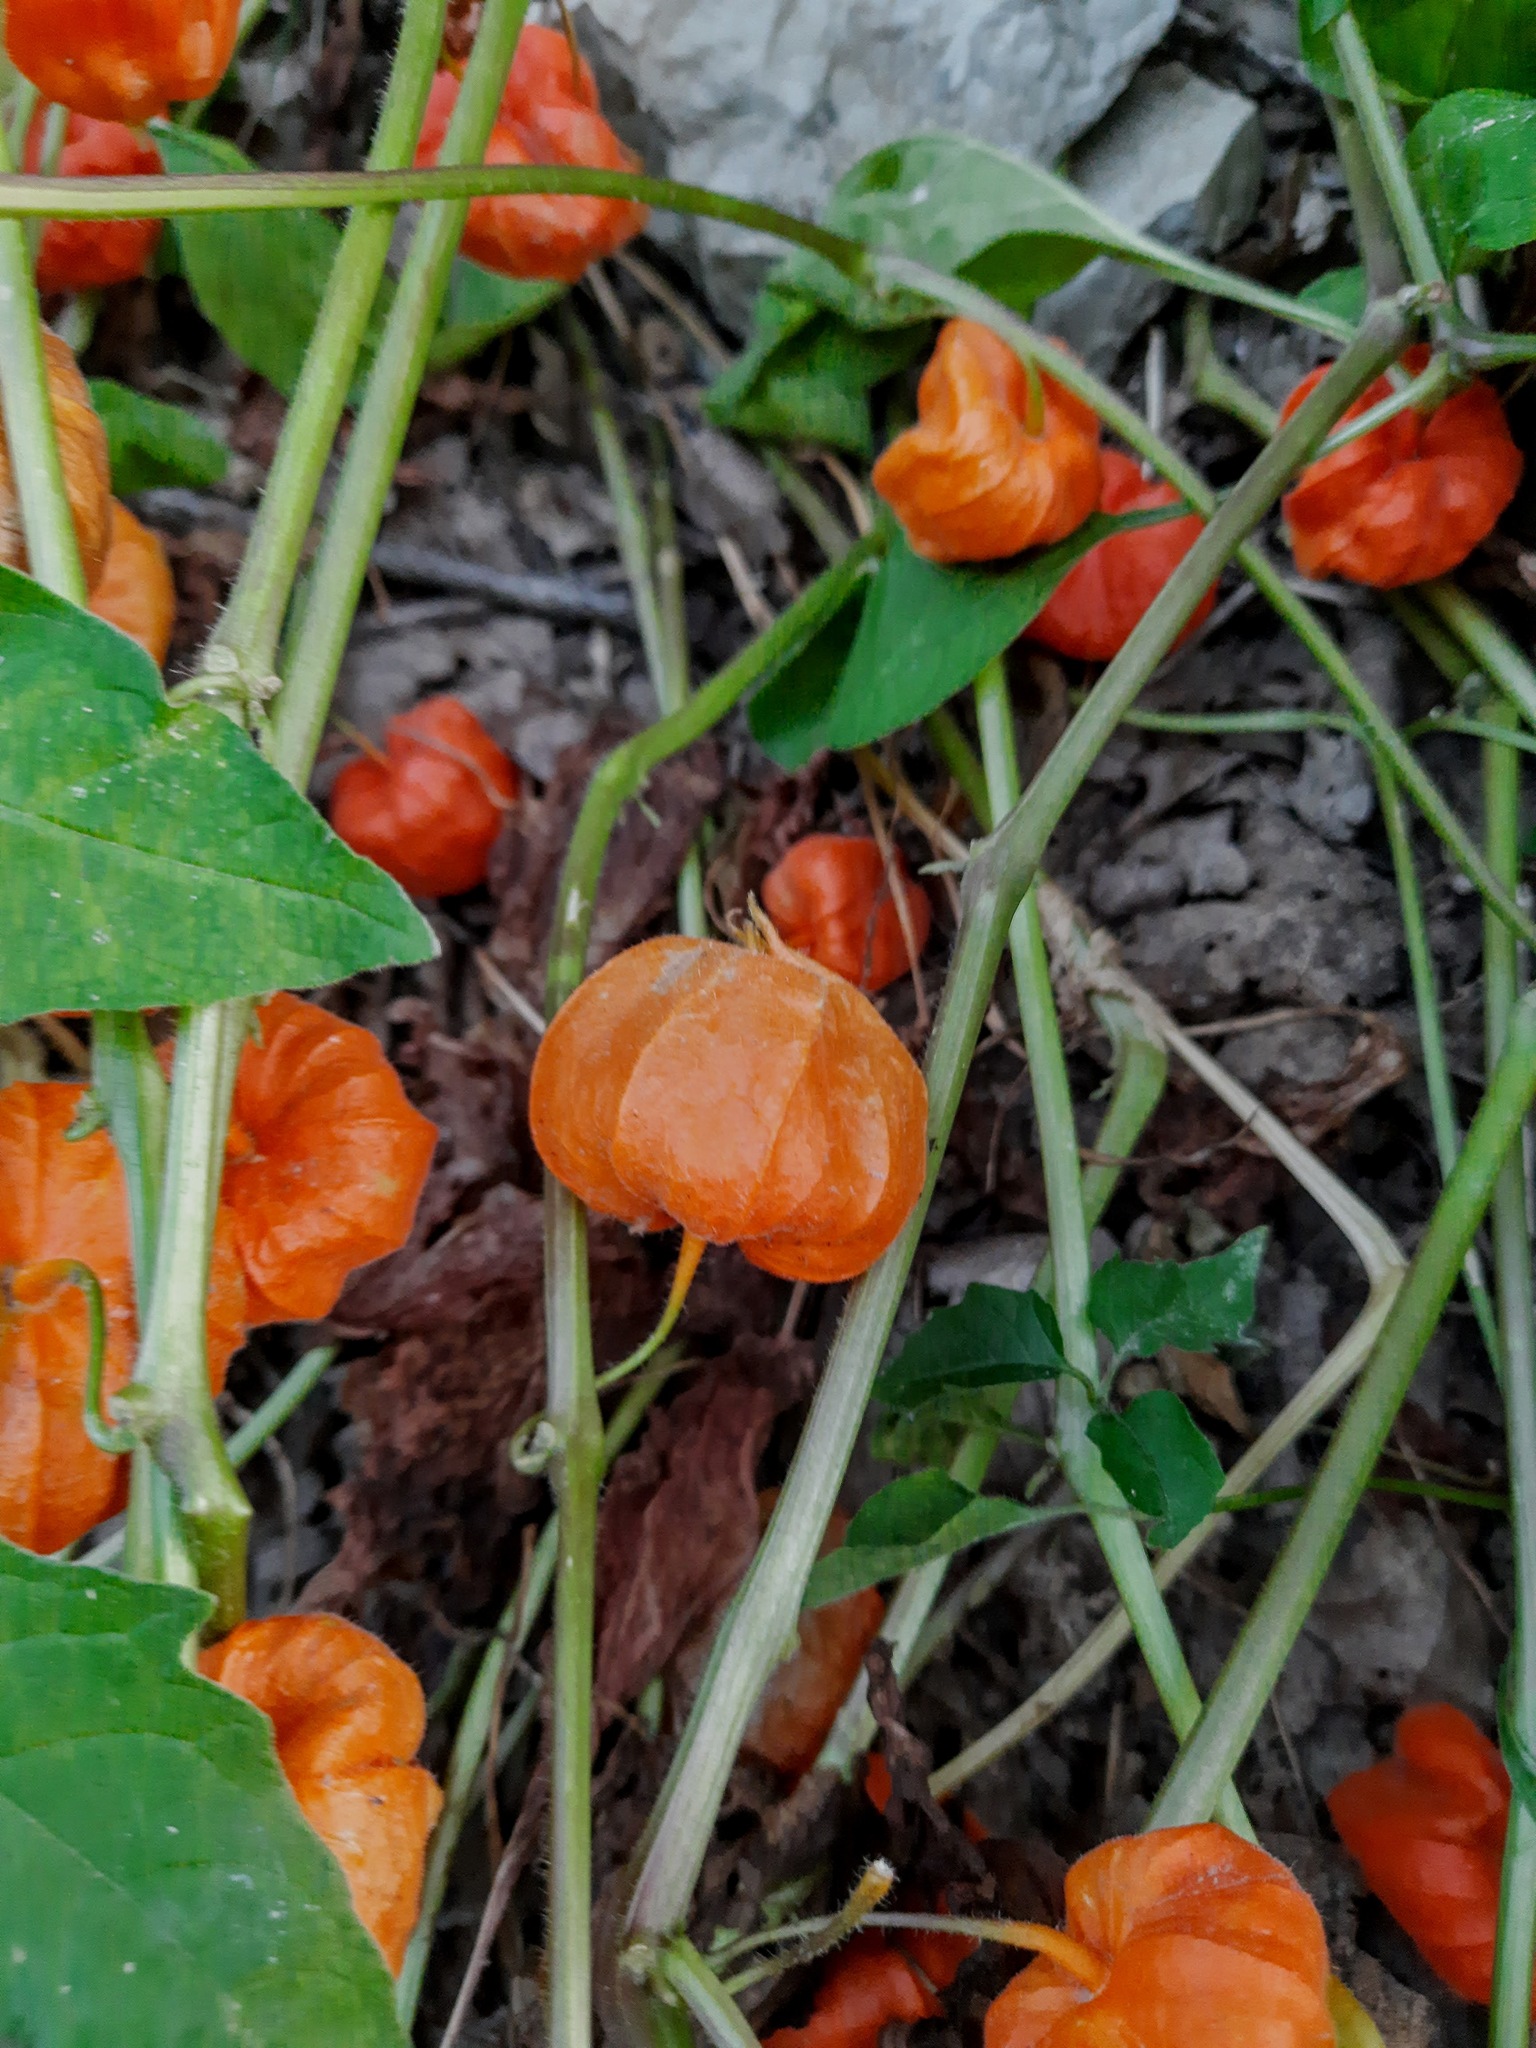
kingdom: Plantae
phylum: Tracheophyta
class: Magnoliopsida
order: Solanales
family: Solanaceae
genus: Alkekengi
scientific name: Alkekengi officinarum
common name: Japanese-lantern
